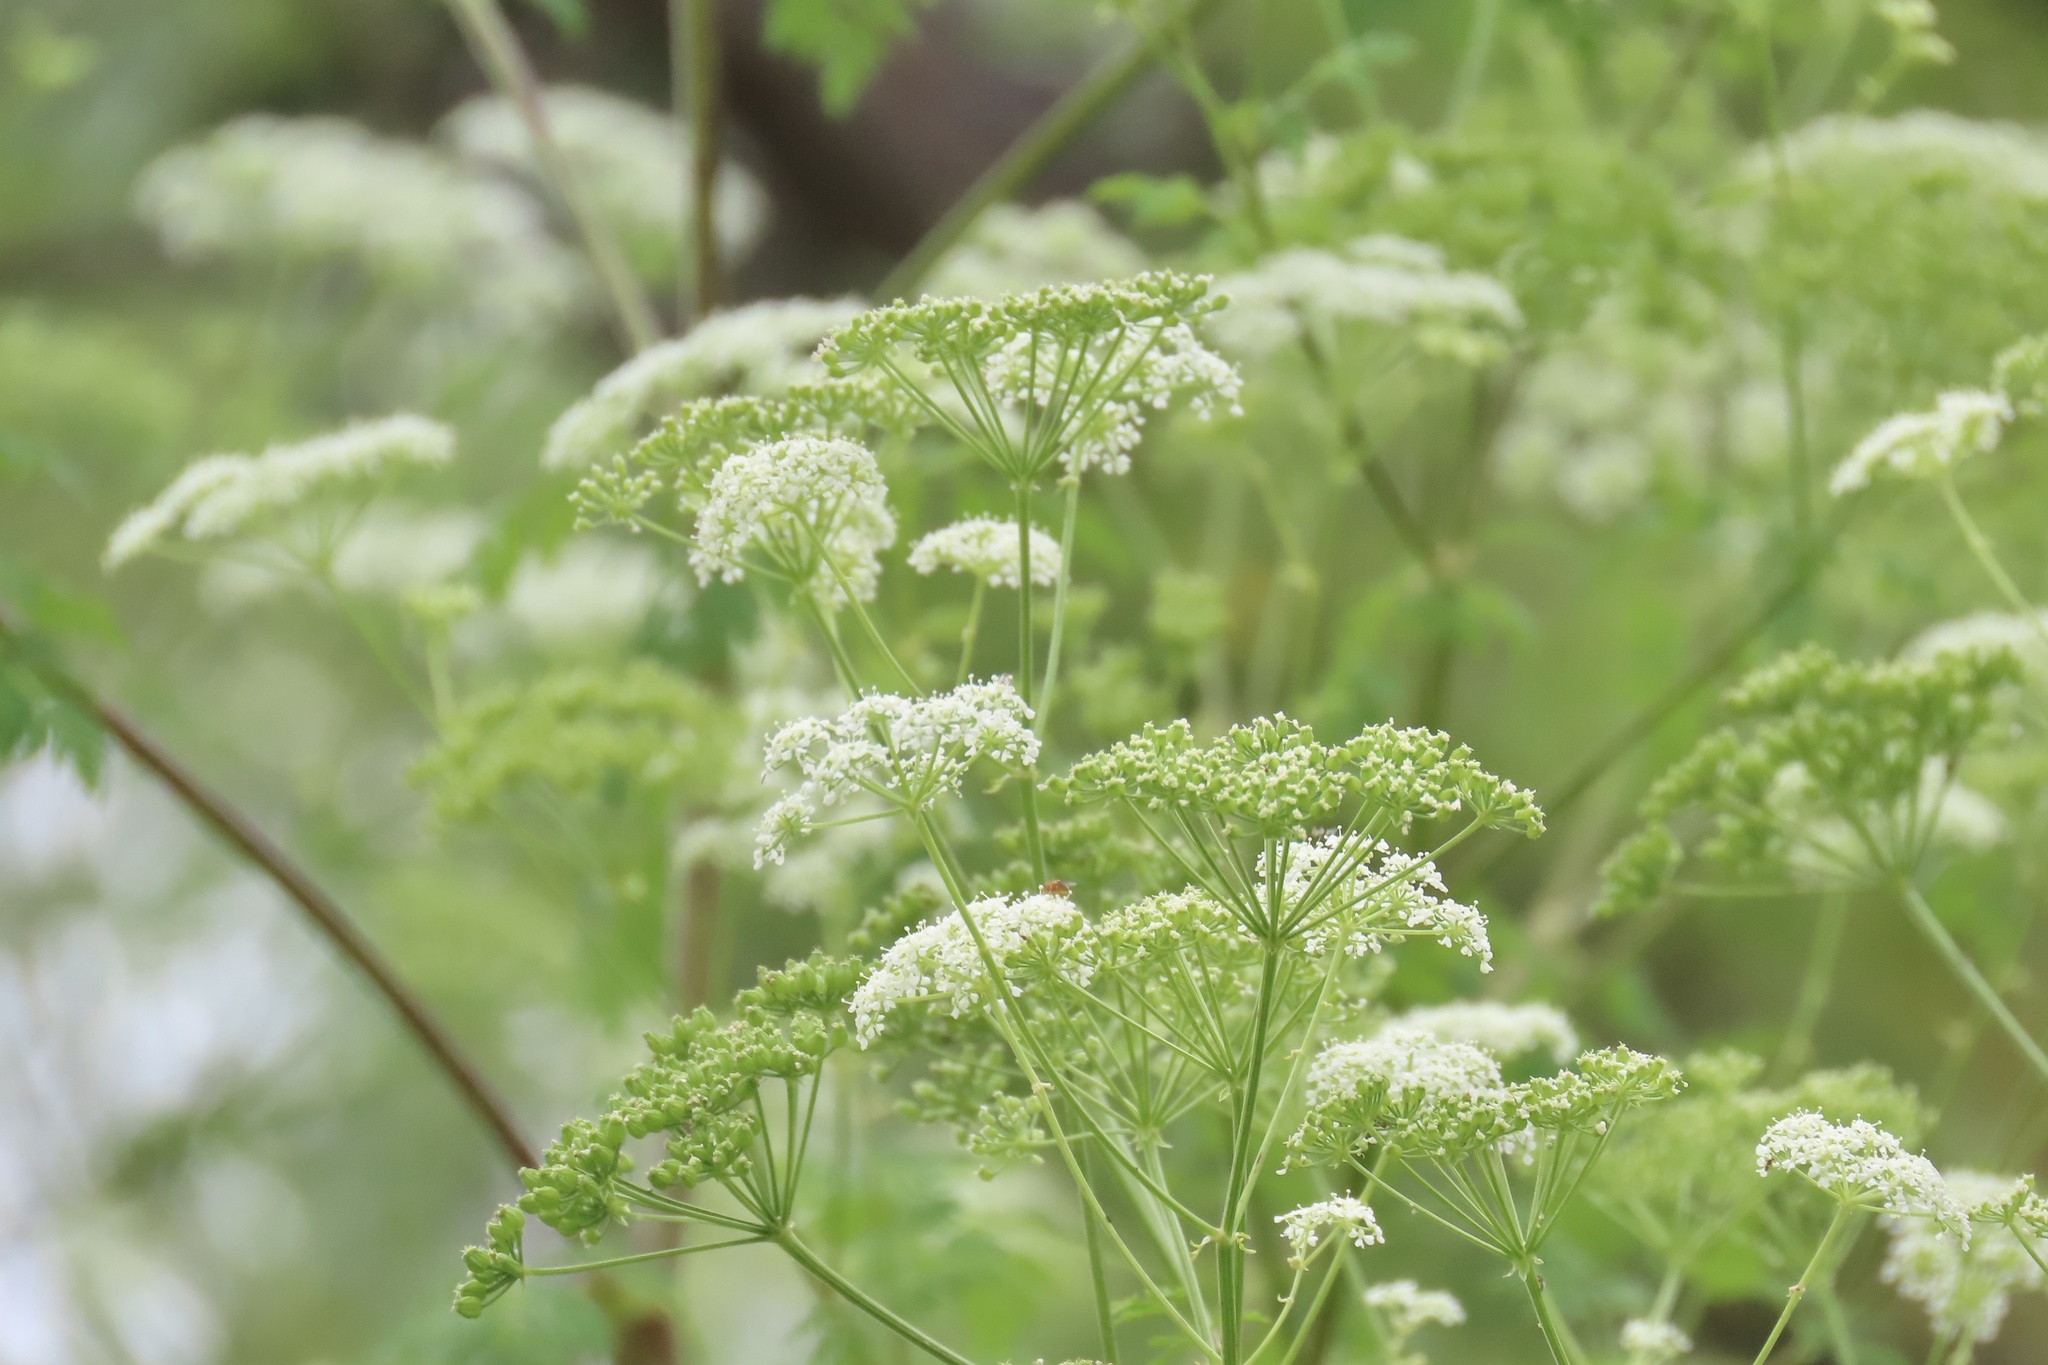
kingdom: Plantae
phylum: Tracheophyta
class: Magnoliopsida
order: Apiales
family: Apiaceae
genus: Conium
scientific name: Conium maculatum
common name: Hemlock
